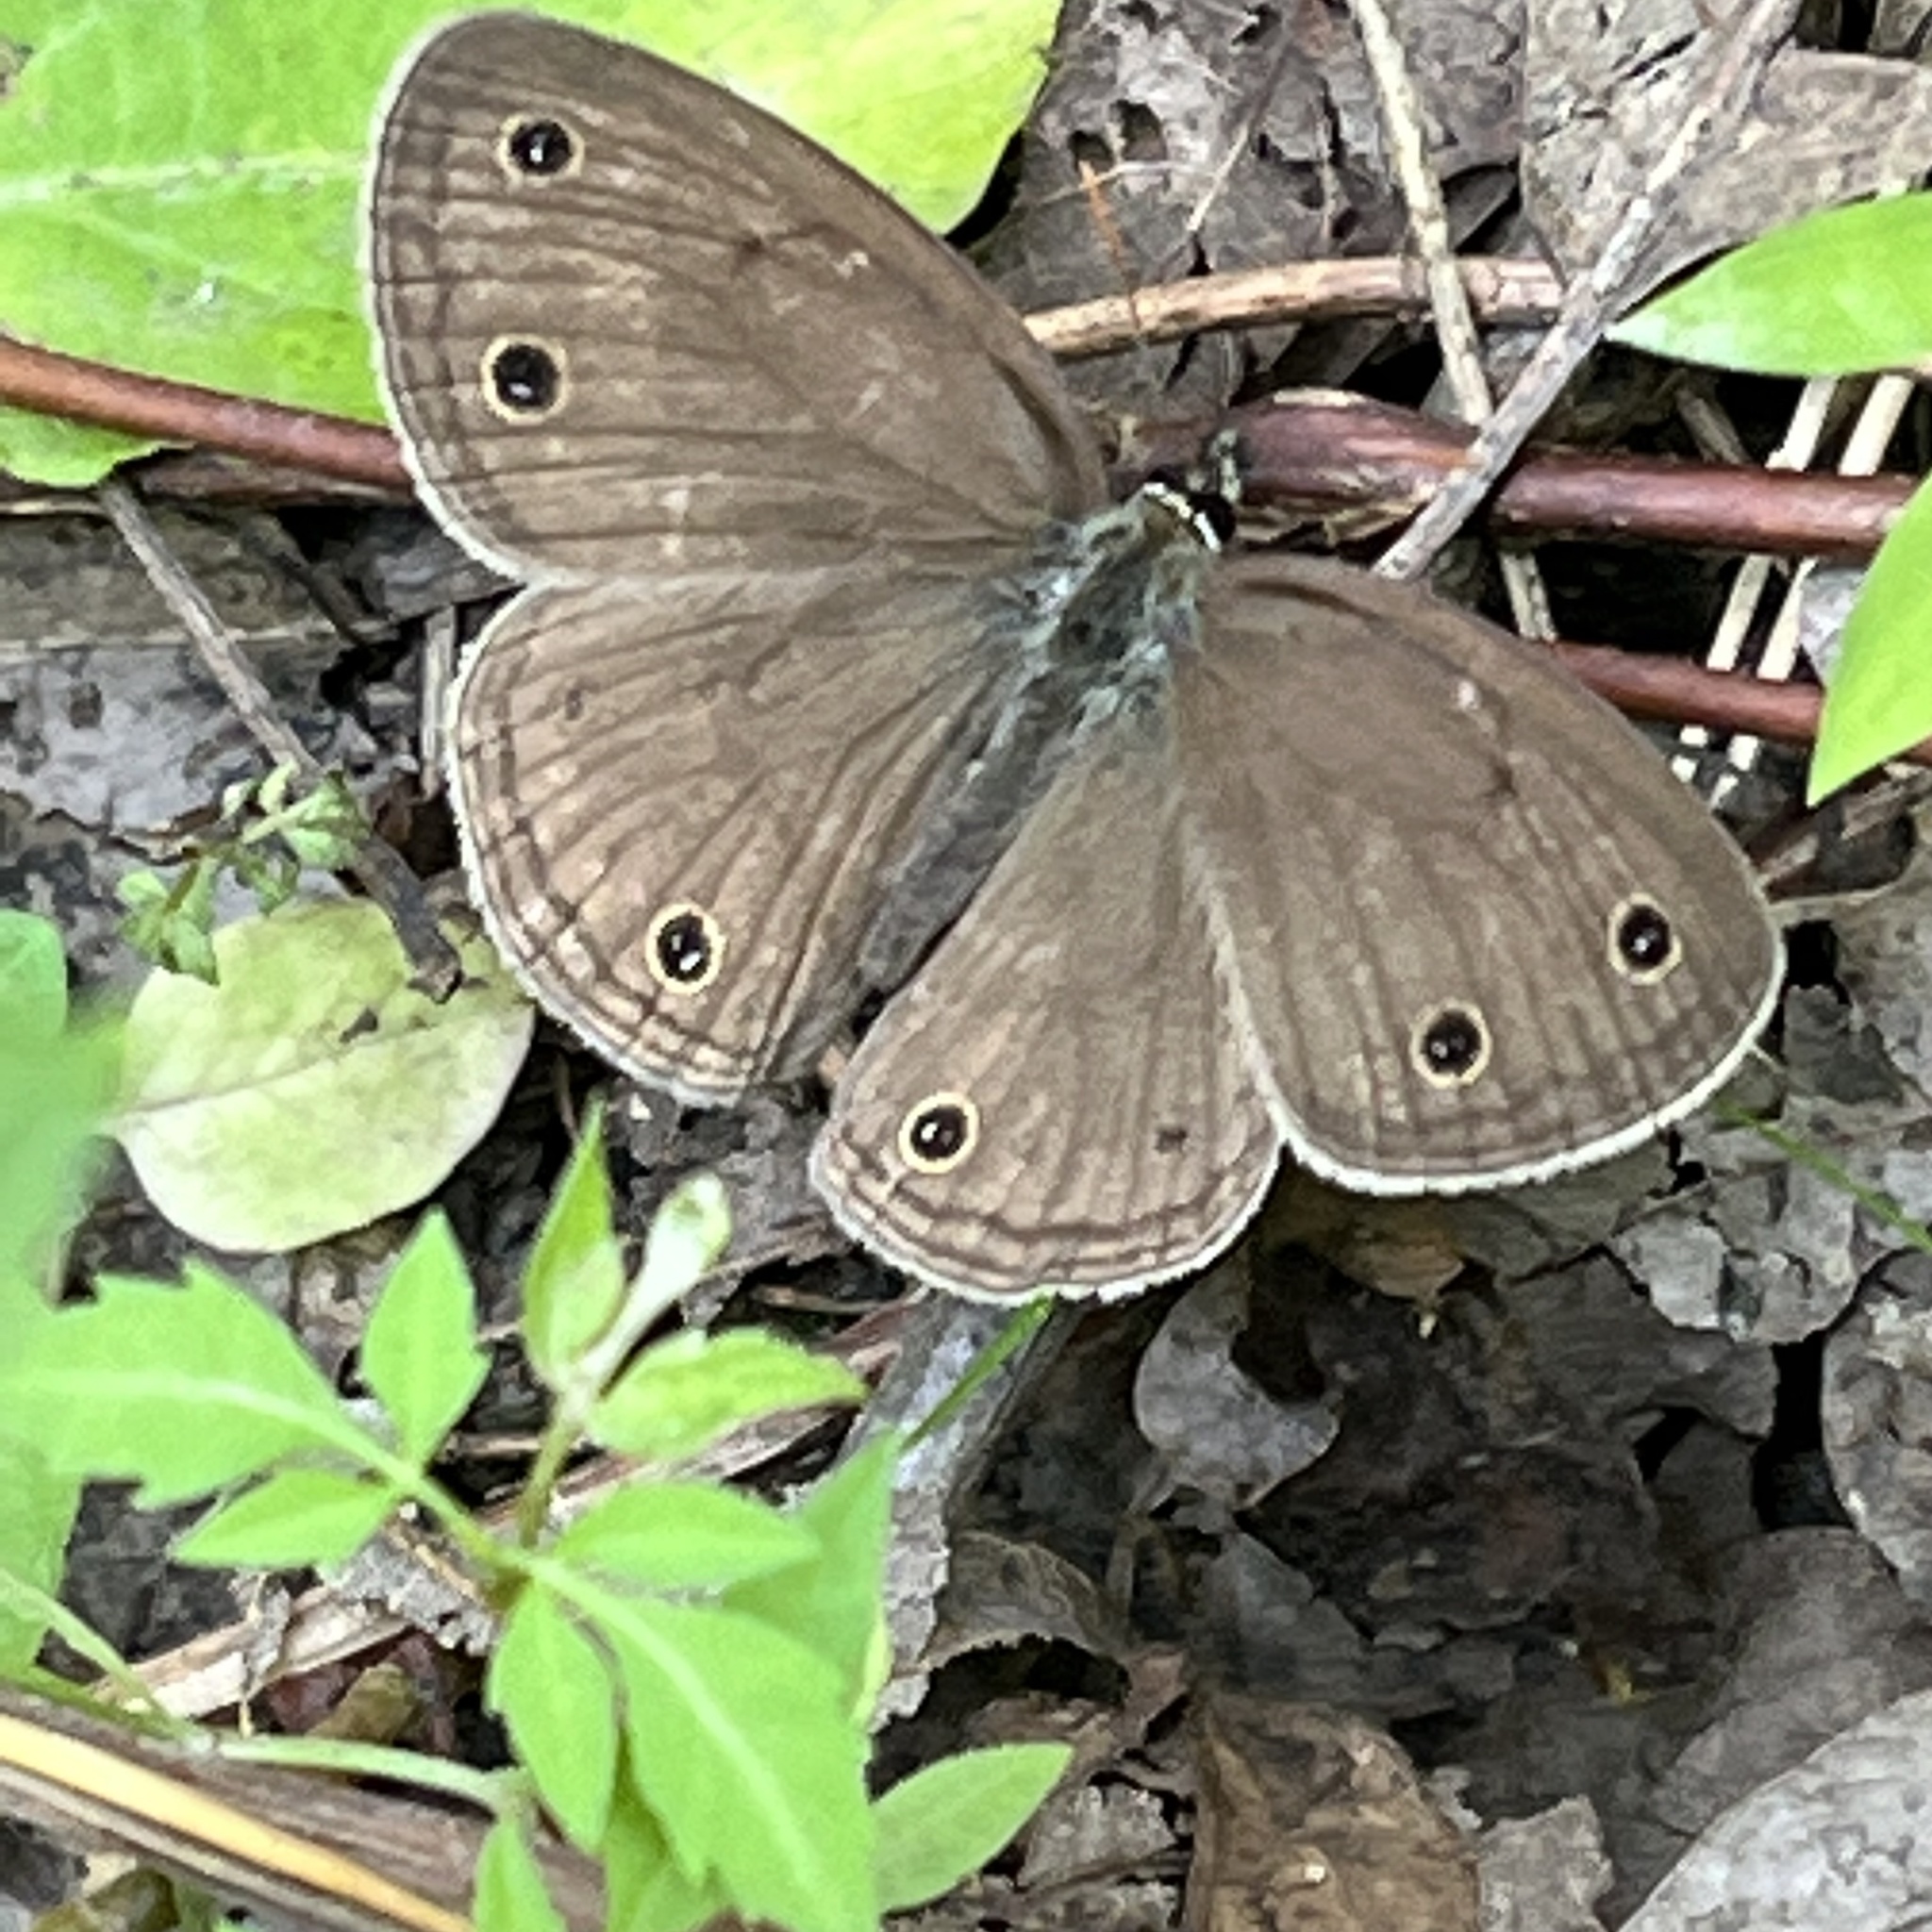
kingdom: Animalia
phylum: Arthropoda
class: Insecta
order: Lepidoptera
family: Nymphalidae
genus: Euptychia
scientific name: Euptychia cymela
